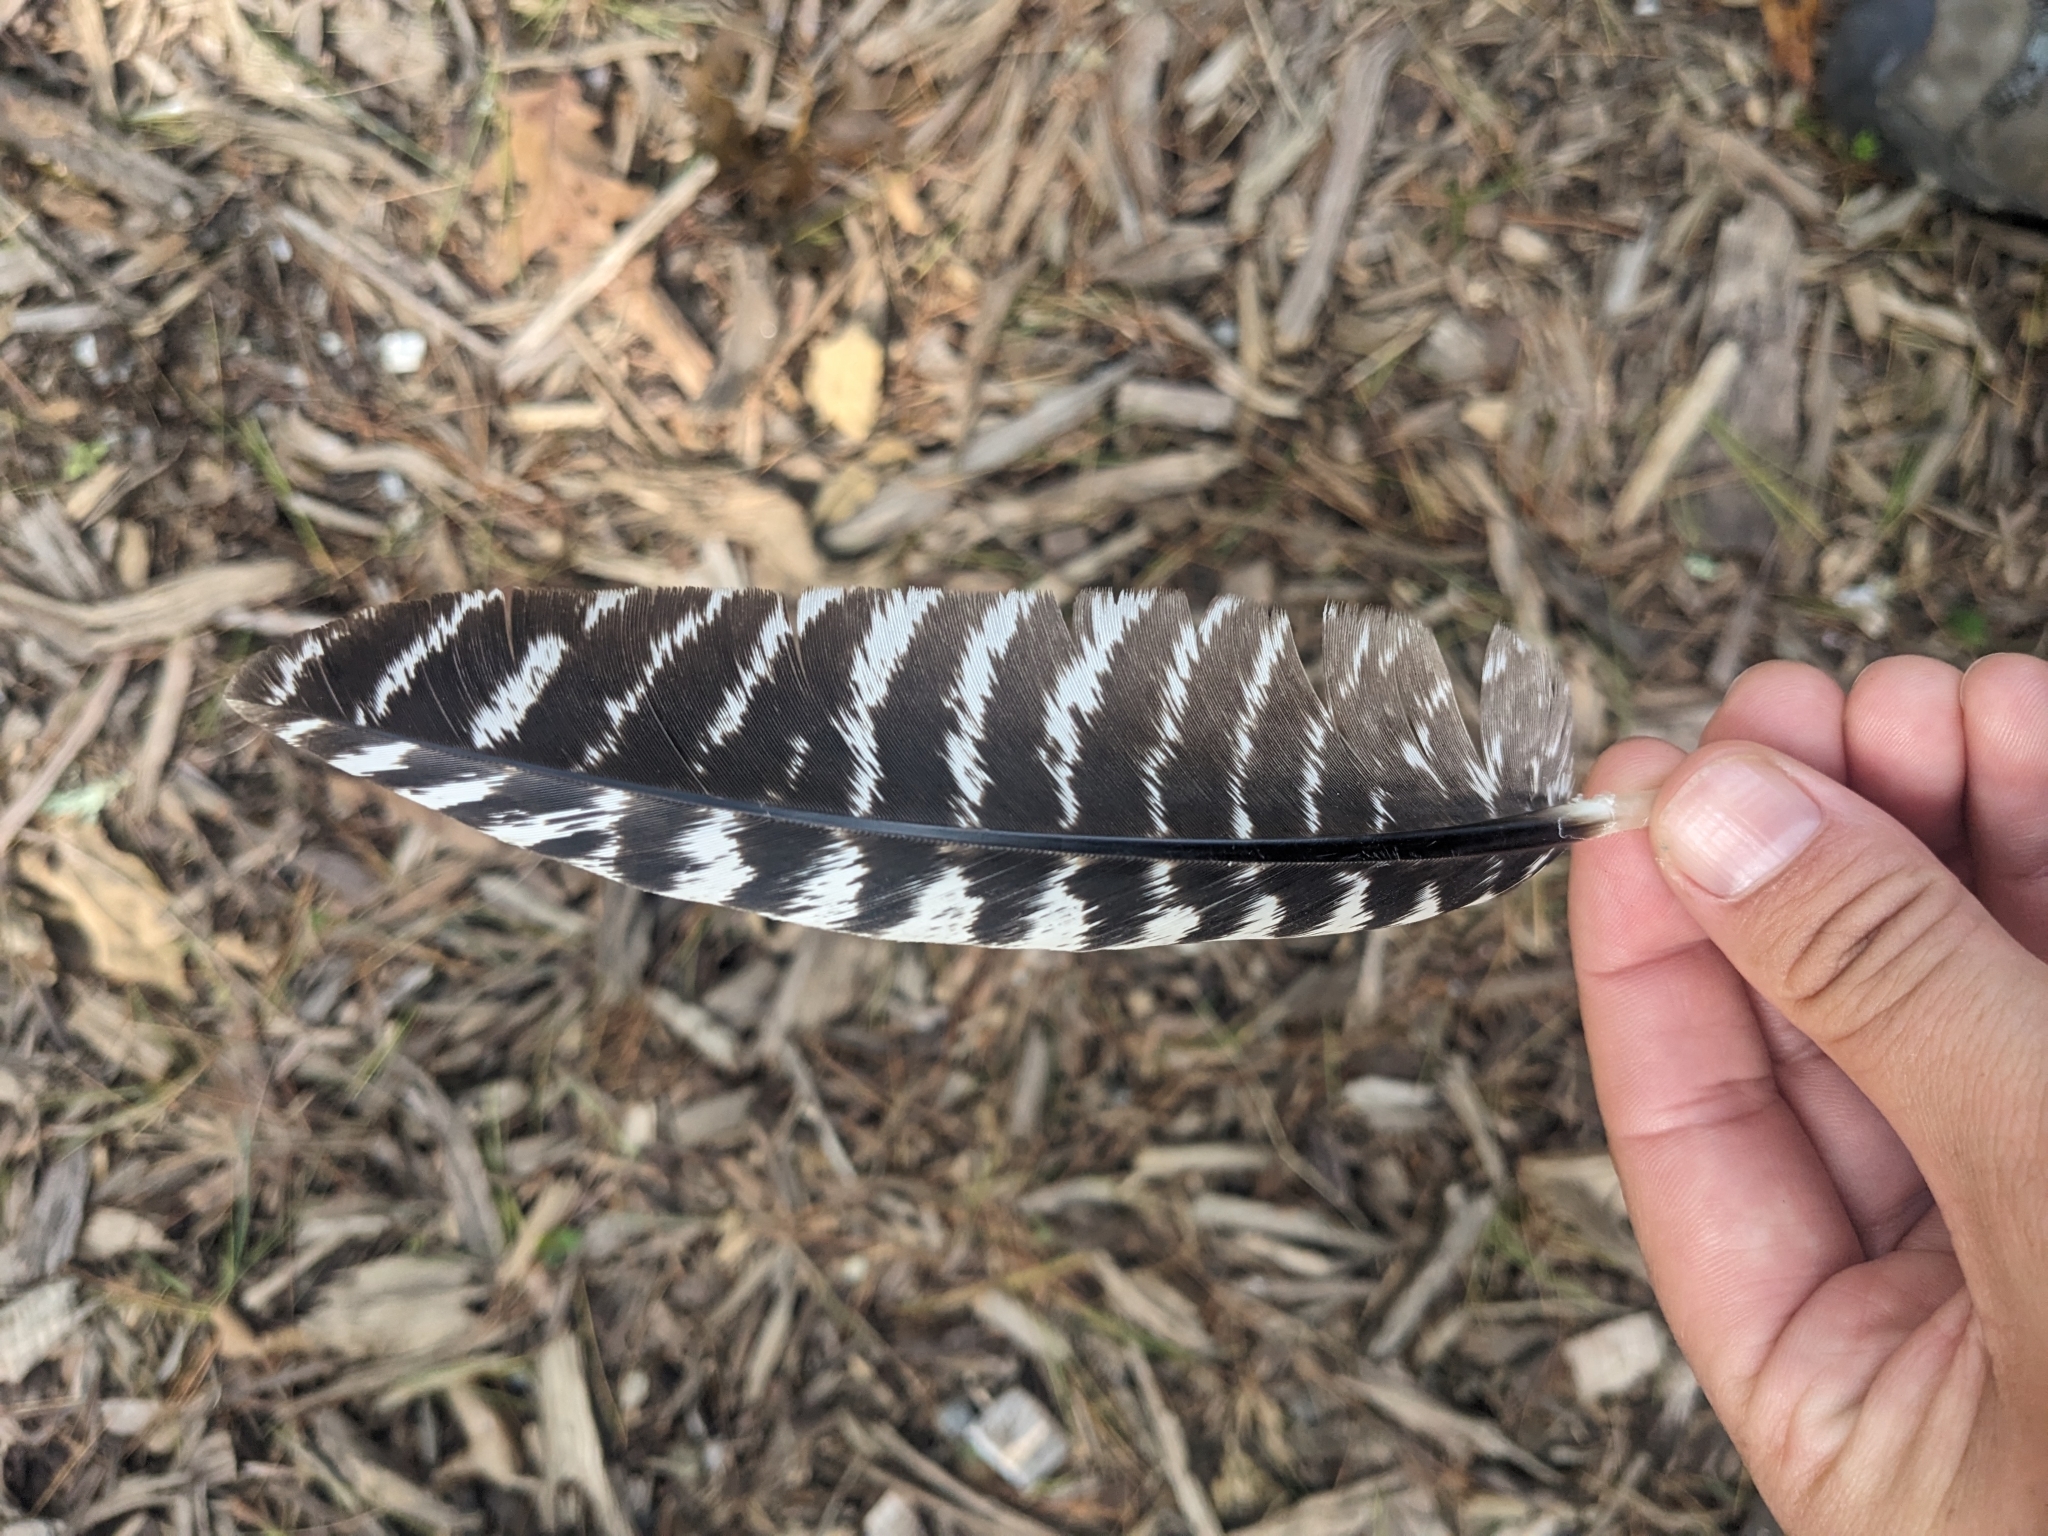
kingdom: Animalia
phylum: Chordata
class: Aves
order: Galliformes
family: Phasianidae
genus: Meleagris
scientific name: Meleagris gallopavo
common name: Wild turkey
